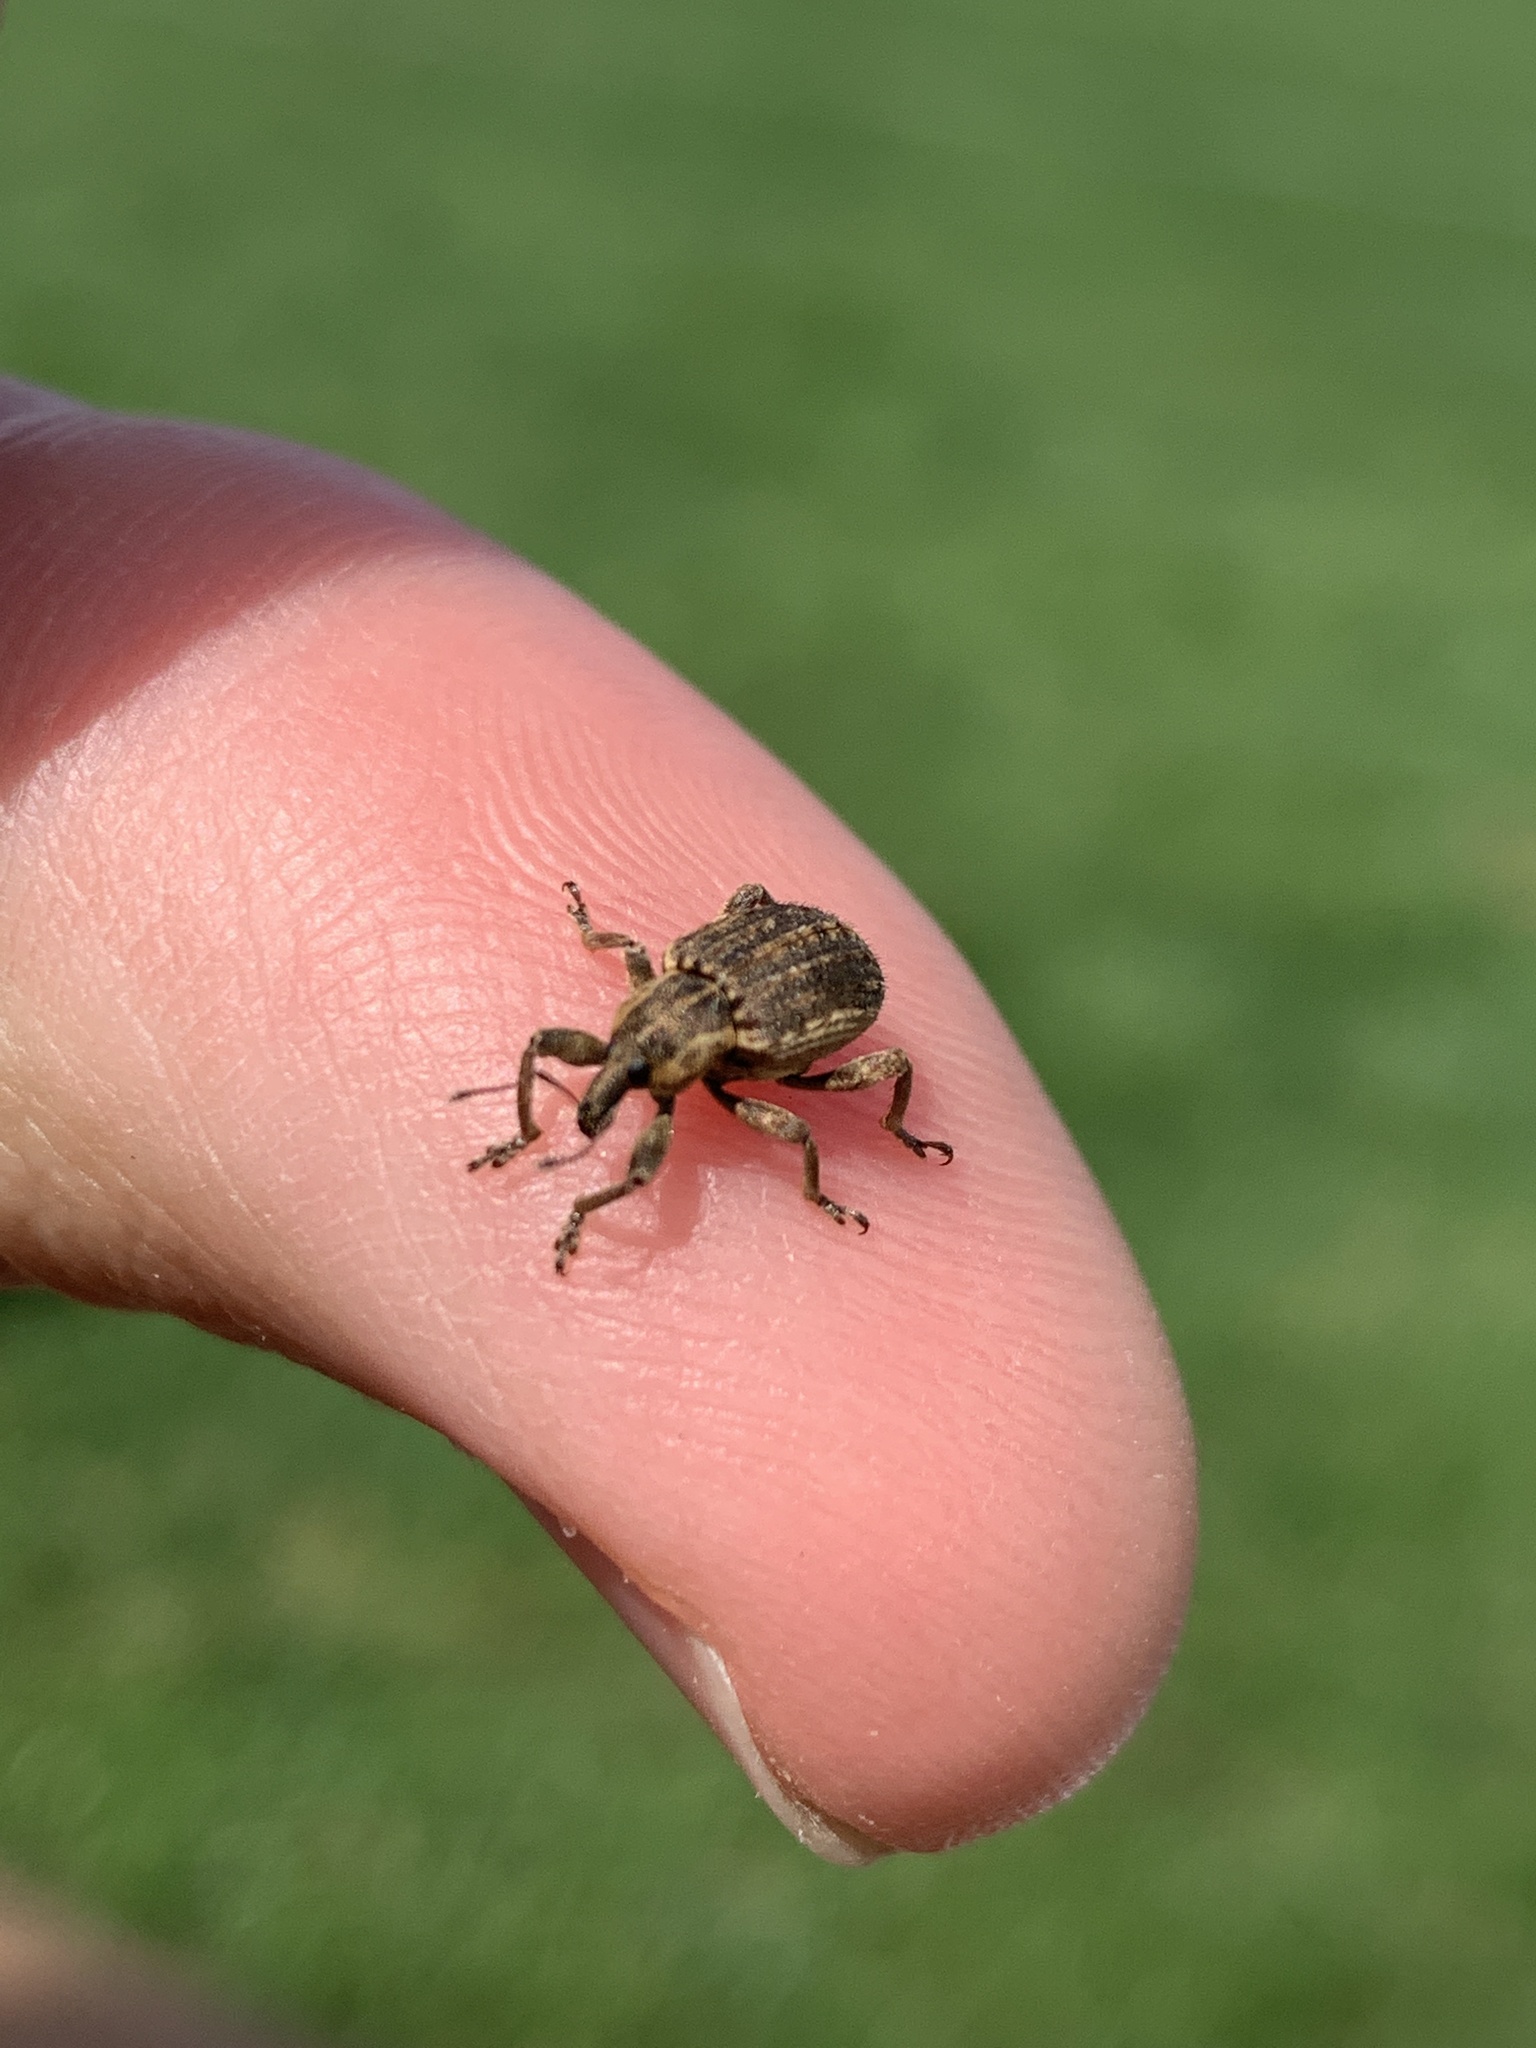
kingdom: Animalia
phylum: Arthropoda
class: Insecta
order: Coleoptera
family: Curculionidae
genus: Brachypera
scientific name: Brachypera zoilus
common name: Clover leaf weevil
